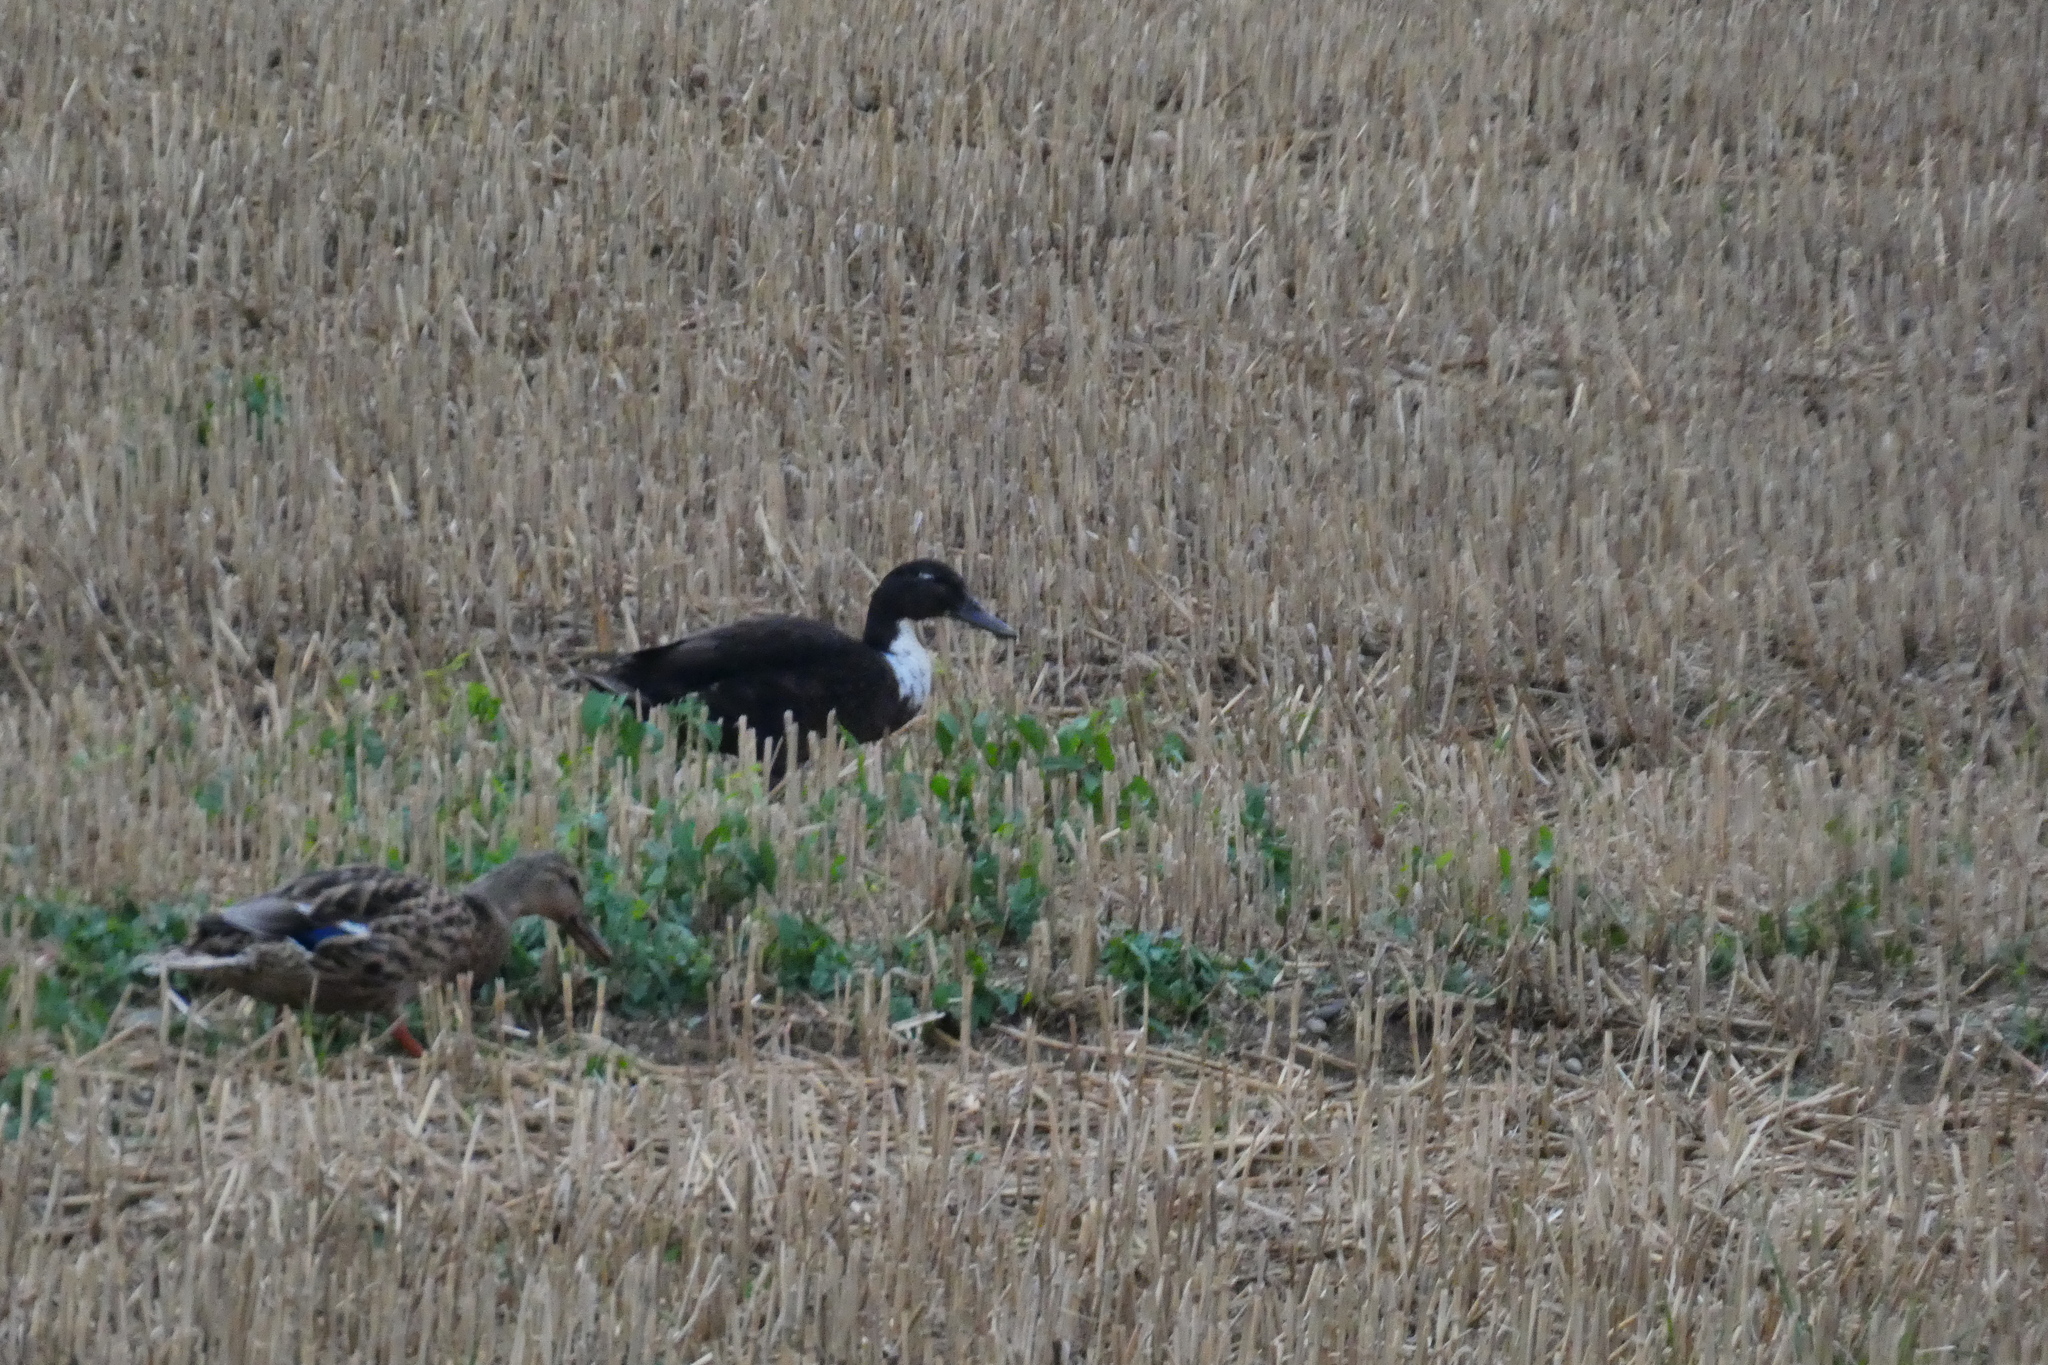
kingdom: Animalia
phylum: Chordata
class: Aves
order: Anseriformes
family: Anatidae
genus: Anas
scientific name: Anas platyrhynchos
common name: Mallard
